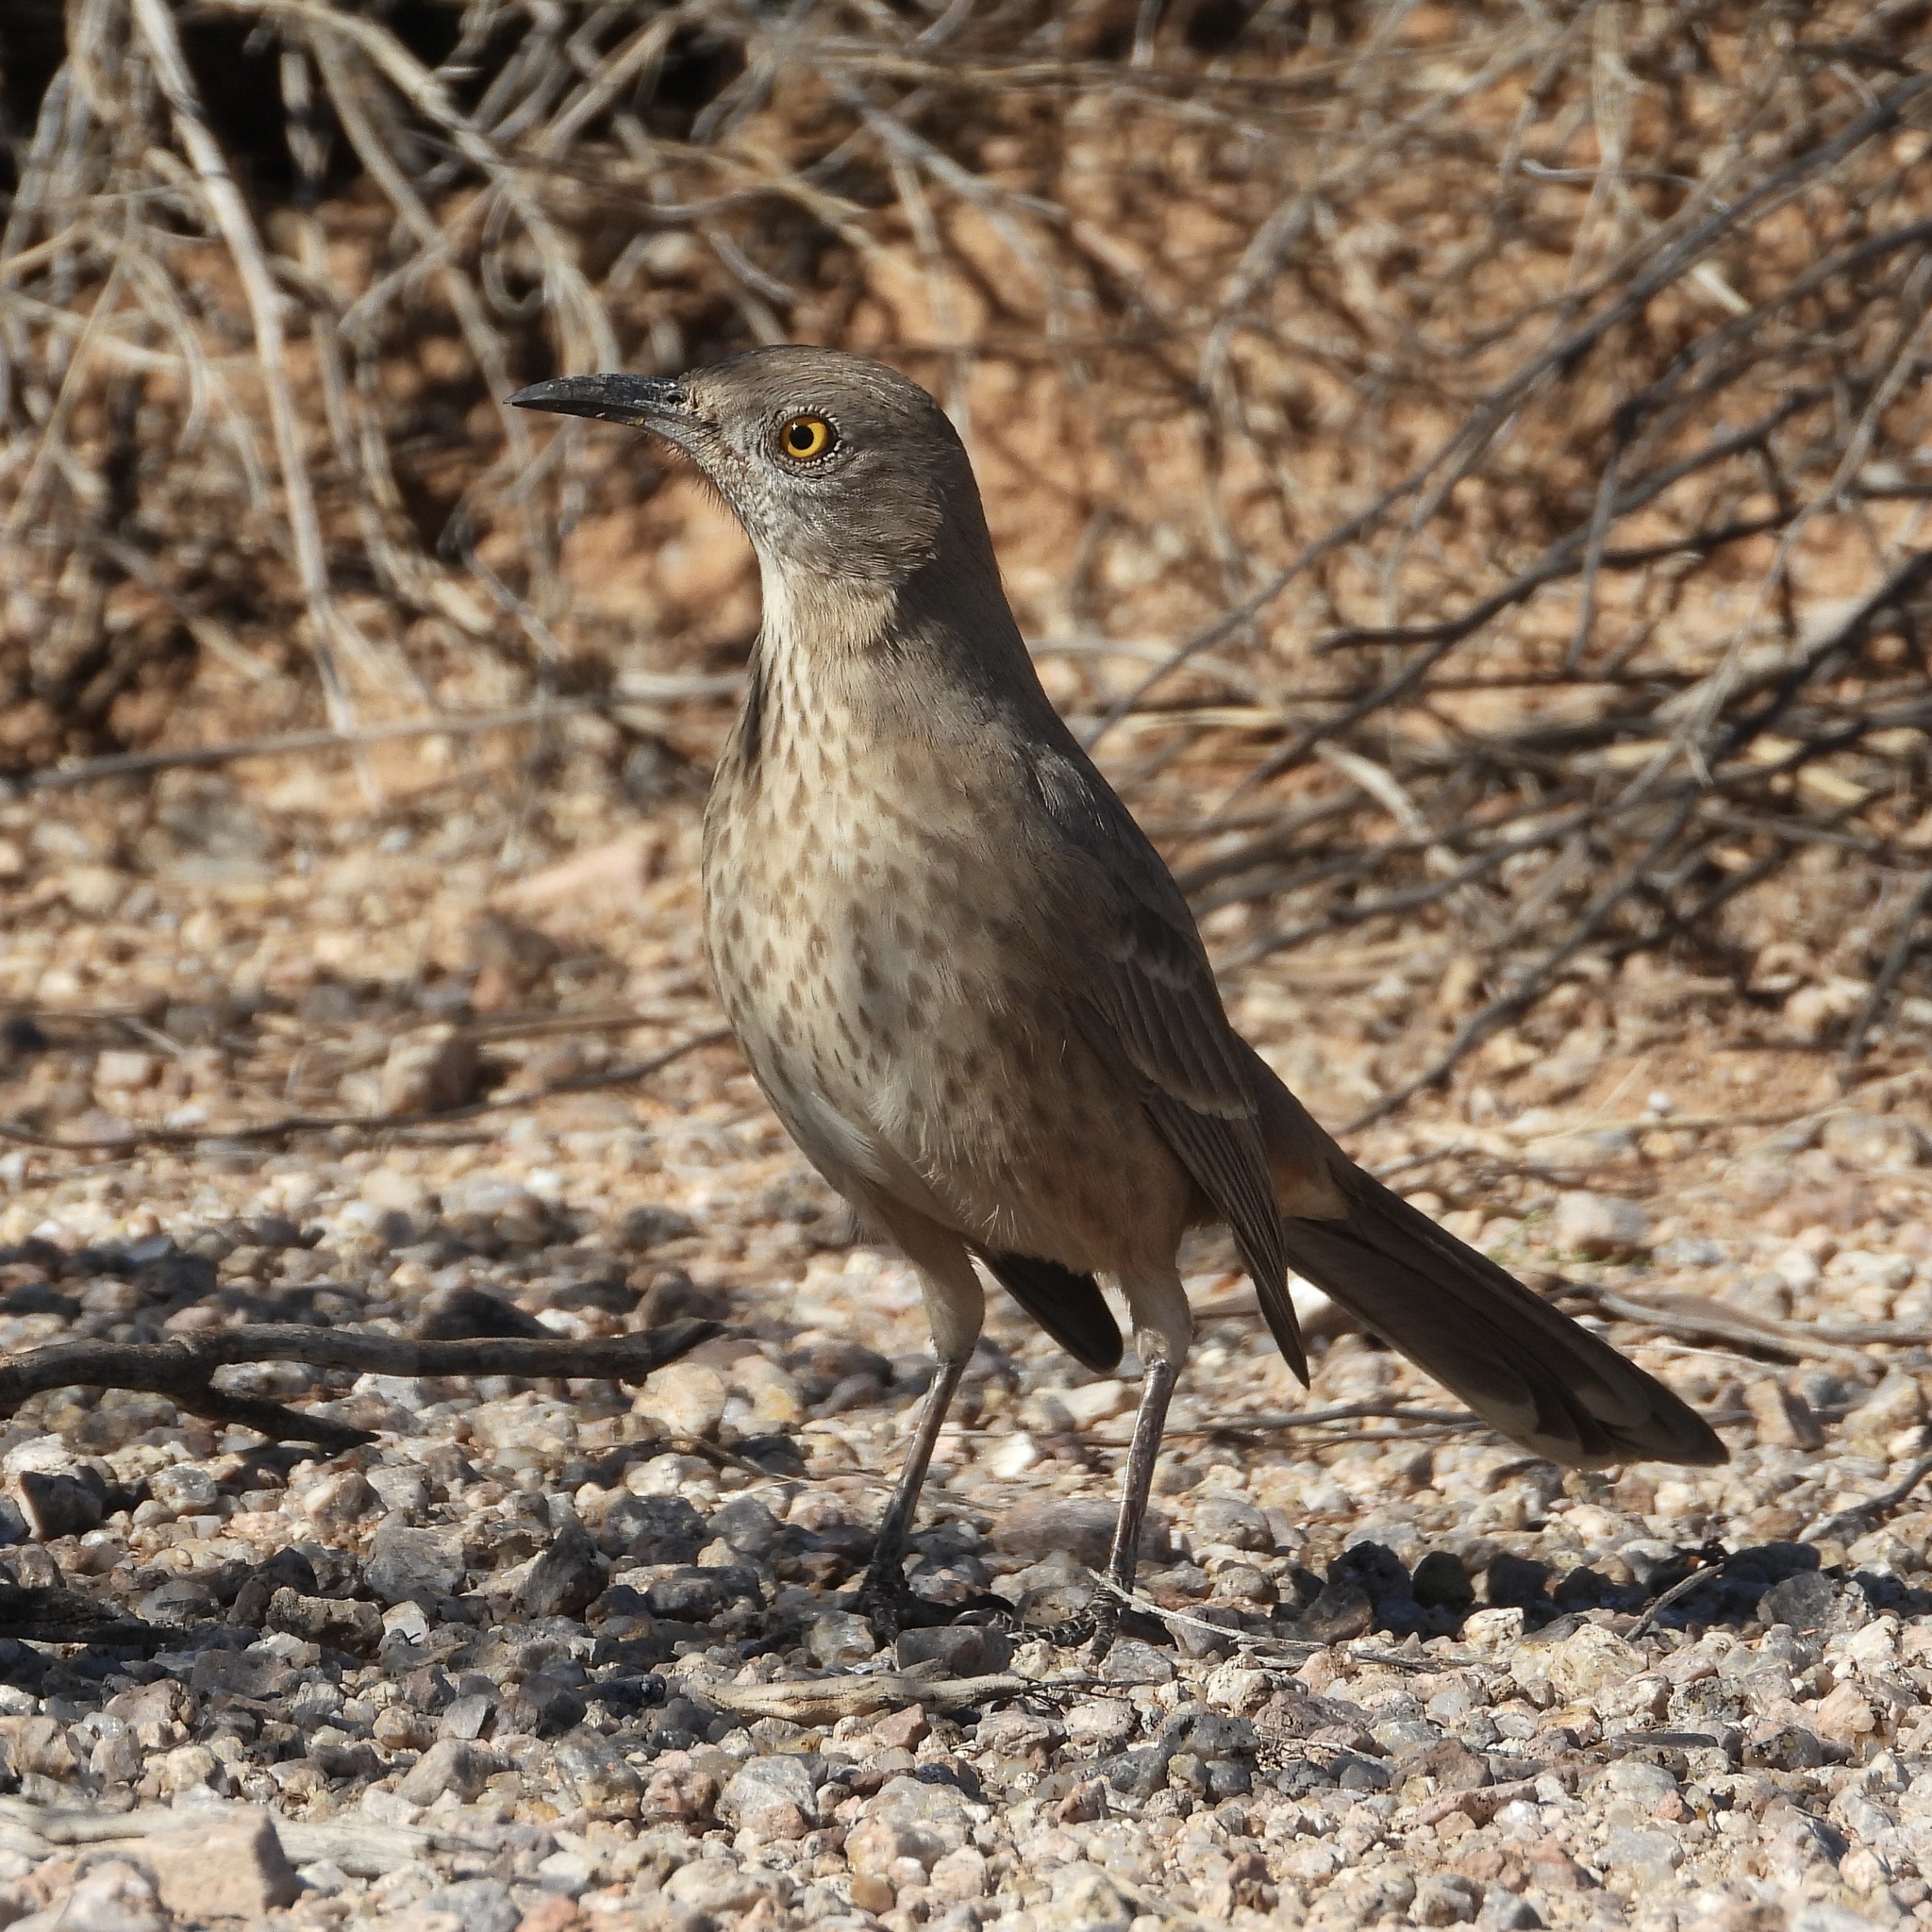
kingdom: Animalia
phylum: Chordata
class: Aves
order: Passeriformes
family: Mimidae
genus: Toxostoma
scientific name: Toxostoma bendirei
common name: Bendire's thrasher
